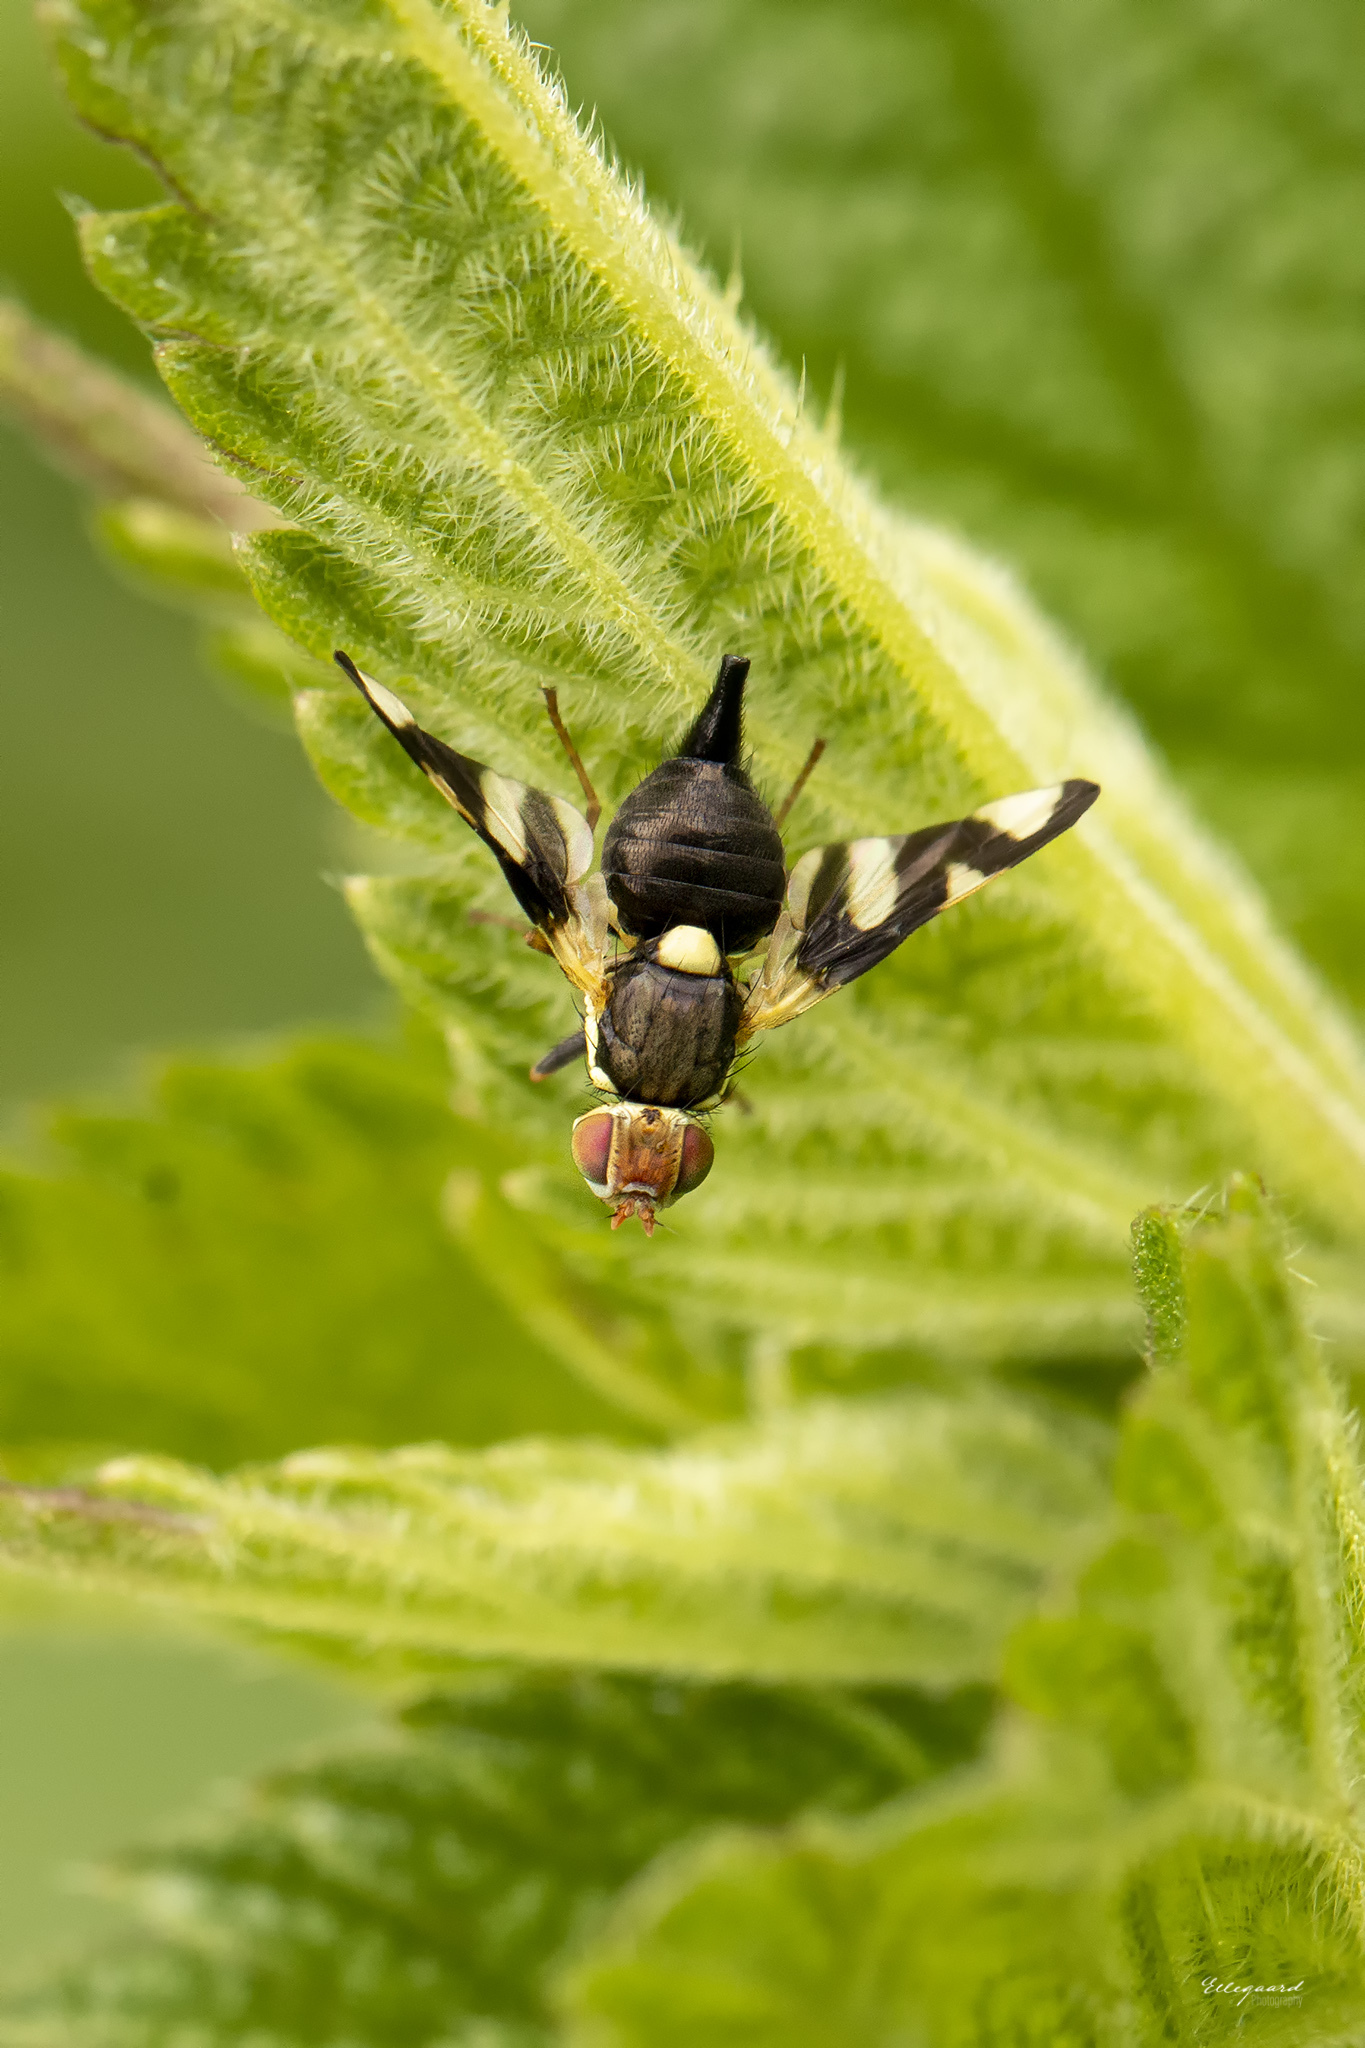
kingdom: Animalia
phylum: Arthropoda
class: Insecta
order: Diptera
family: Tephritidae
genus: Urophora
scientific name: Urophora cardui
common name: Fruit fly
